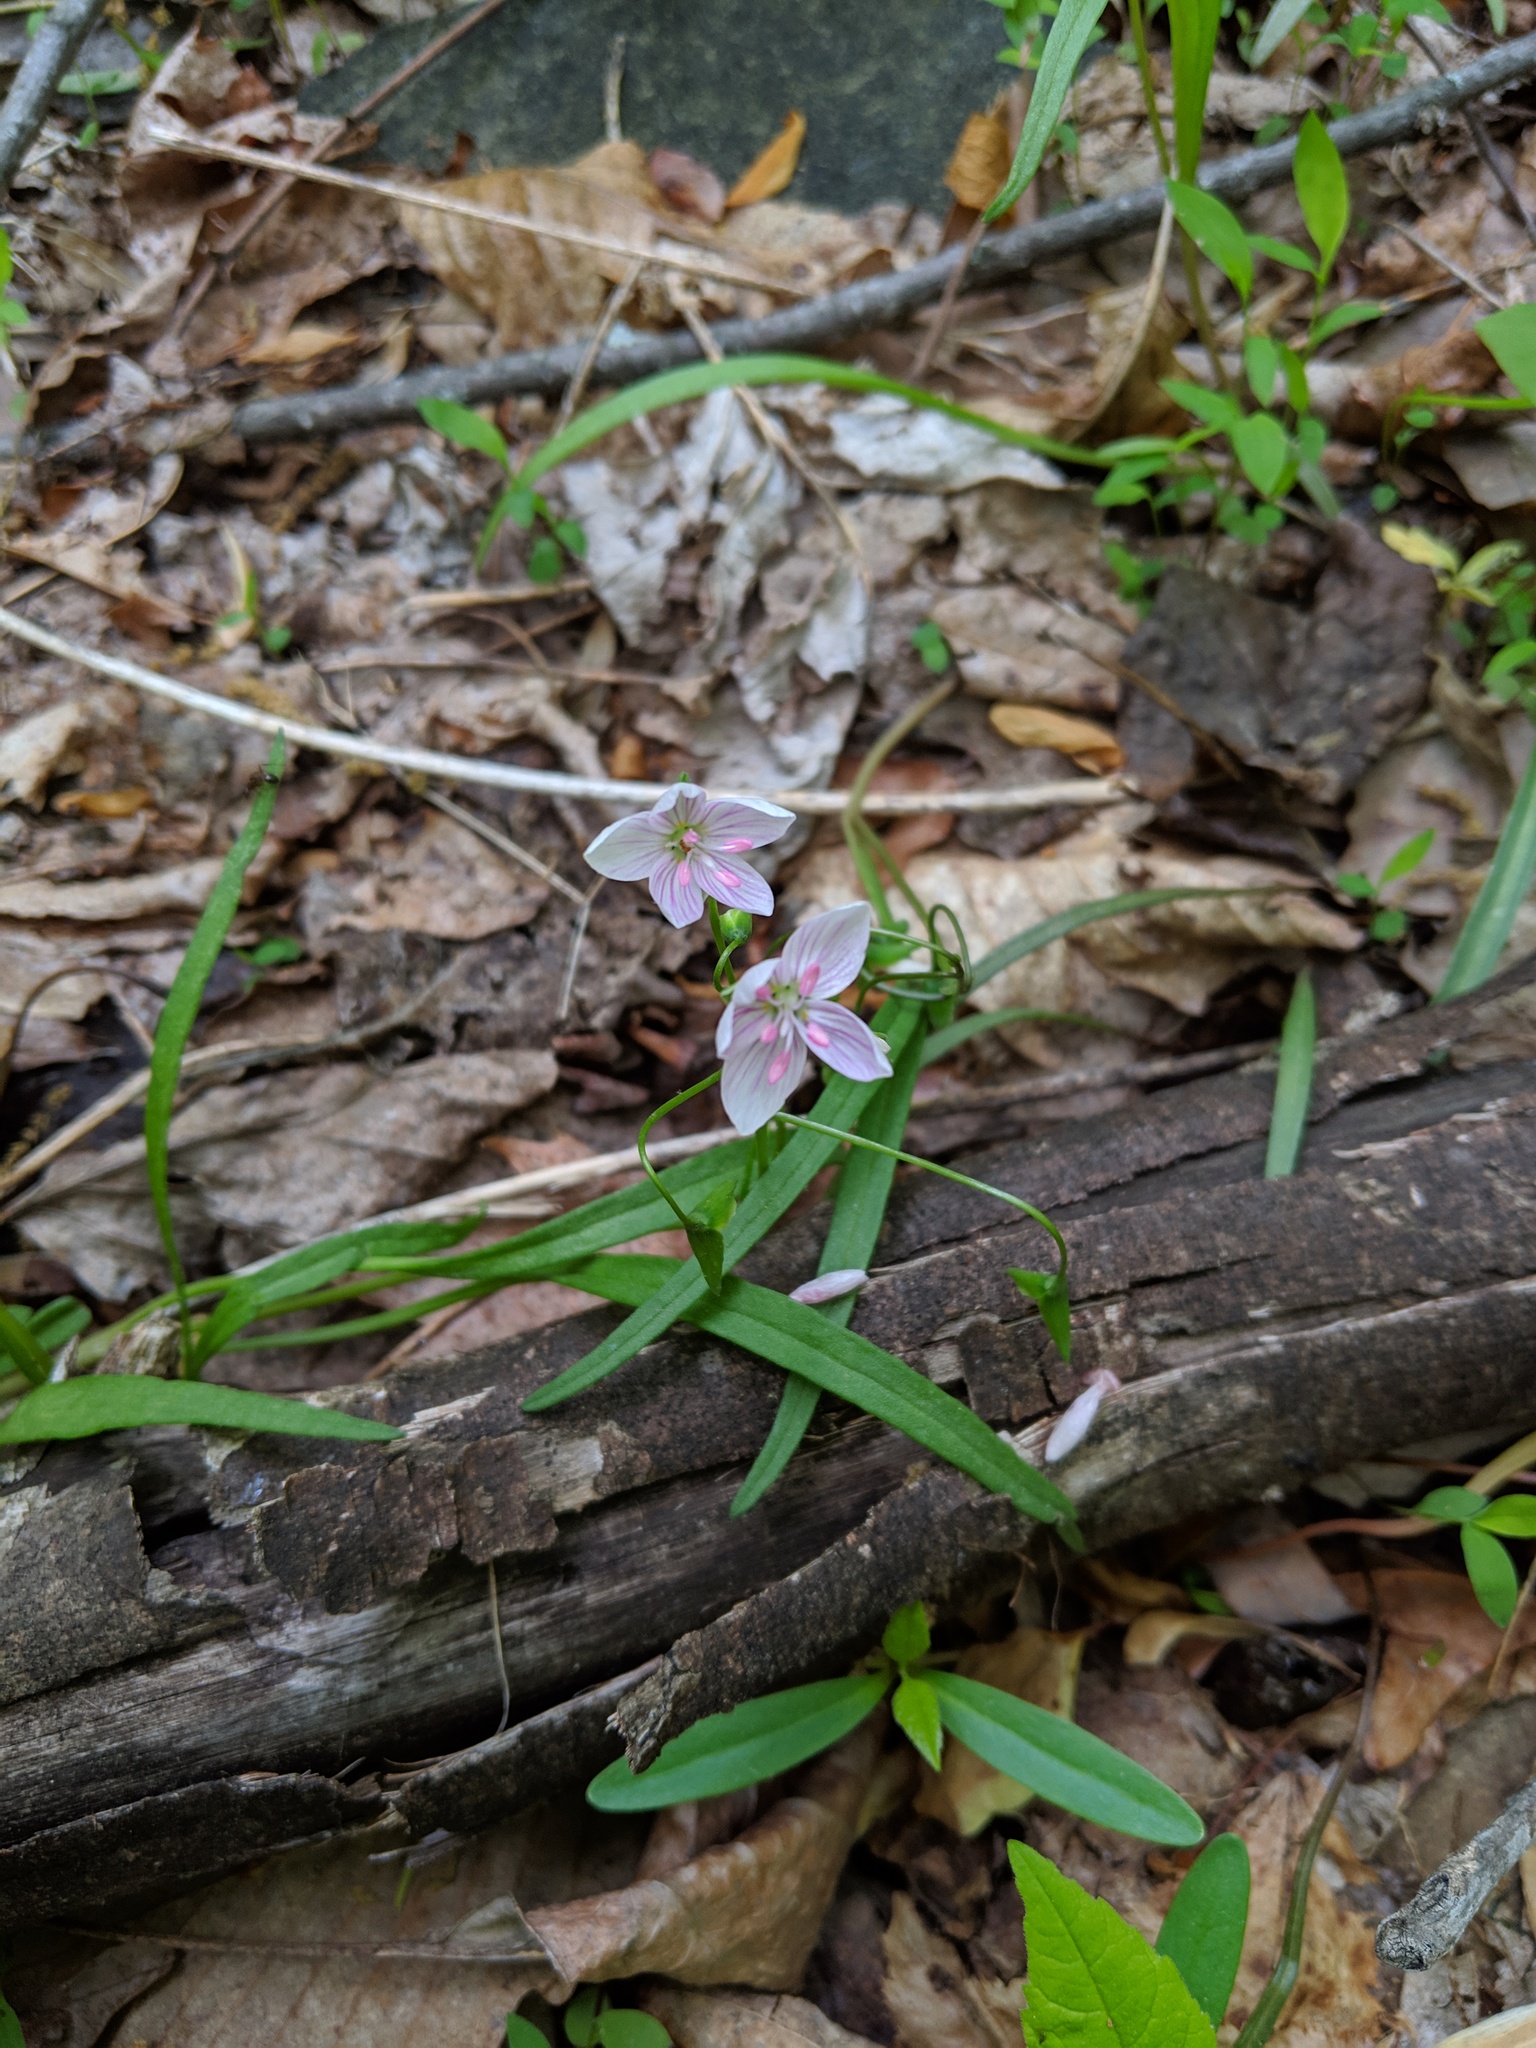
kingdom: Plantae
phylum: Tracheophyta
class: Magnoliopsida
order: Caryophyllales
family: Montiaceae
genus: Claytonia
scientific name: Claytonia virginica
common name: Virginia springbeauty
